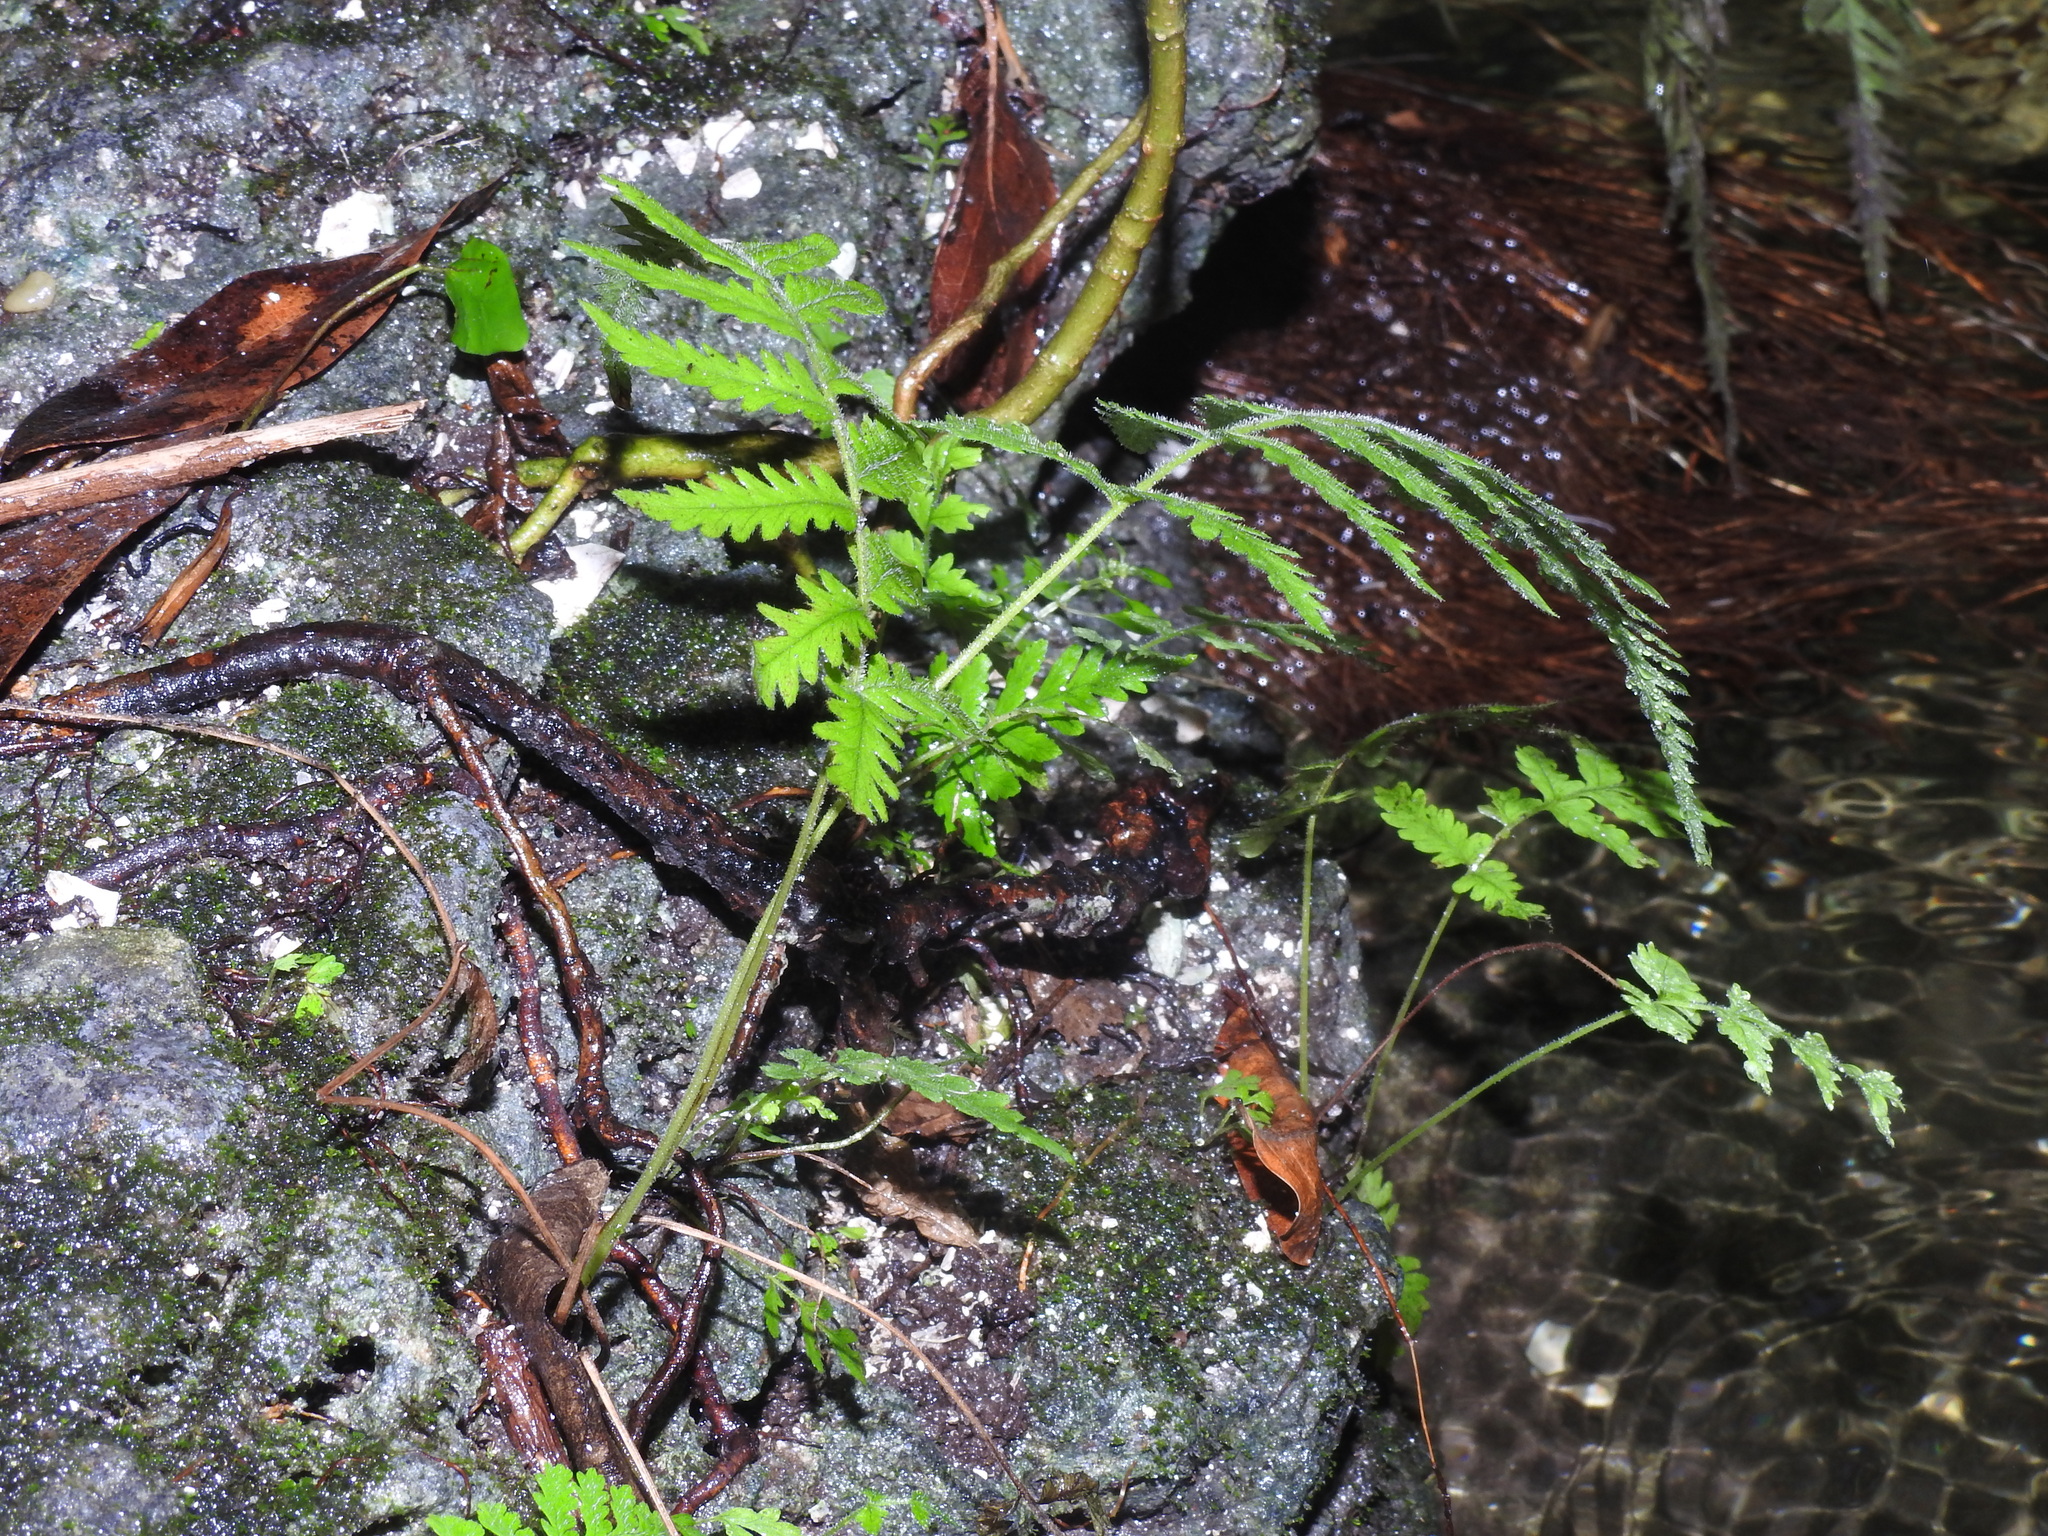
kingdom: Plantae
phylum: Tracheophyta
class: Polypodiopsida
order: Polypodiales
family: Athyriaceae
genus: Deparia
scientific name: Deparia petersenii
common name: Japanese false spleenwort
